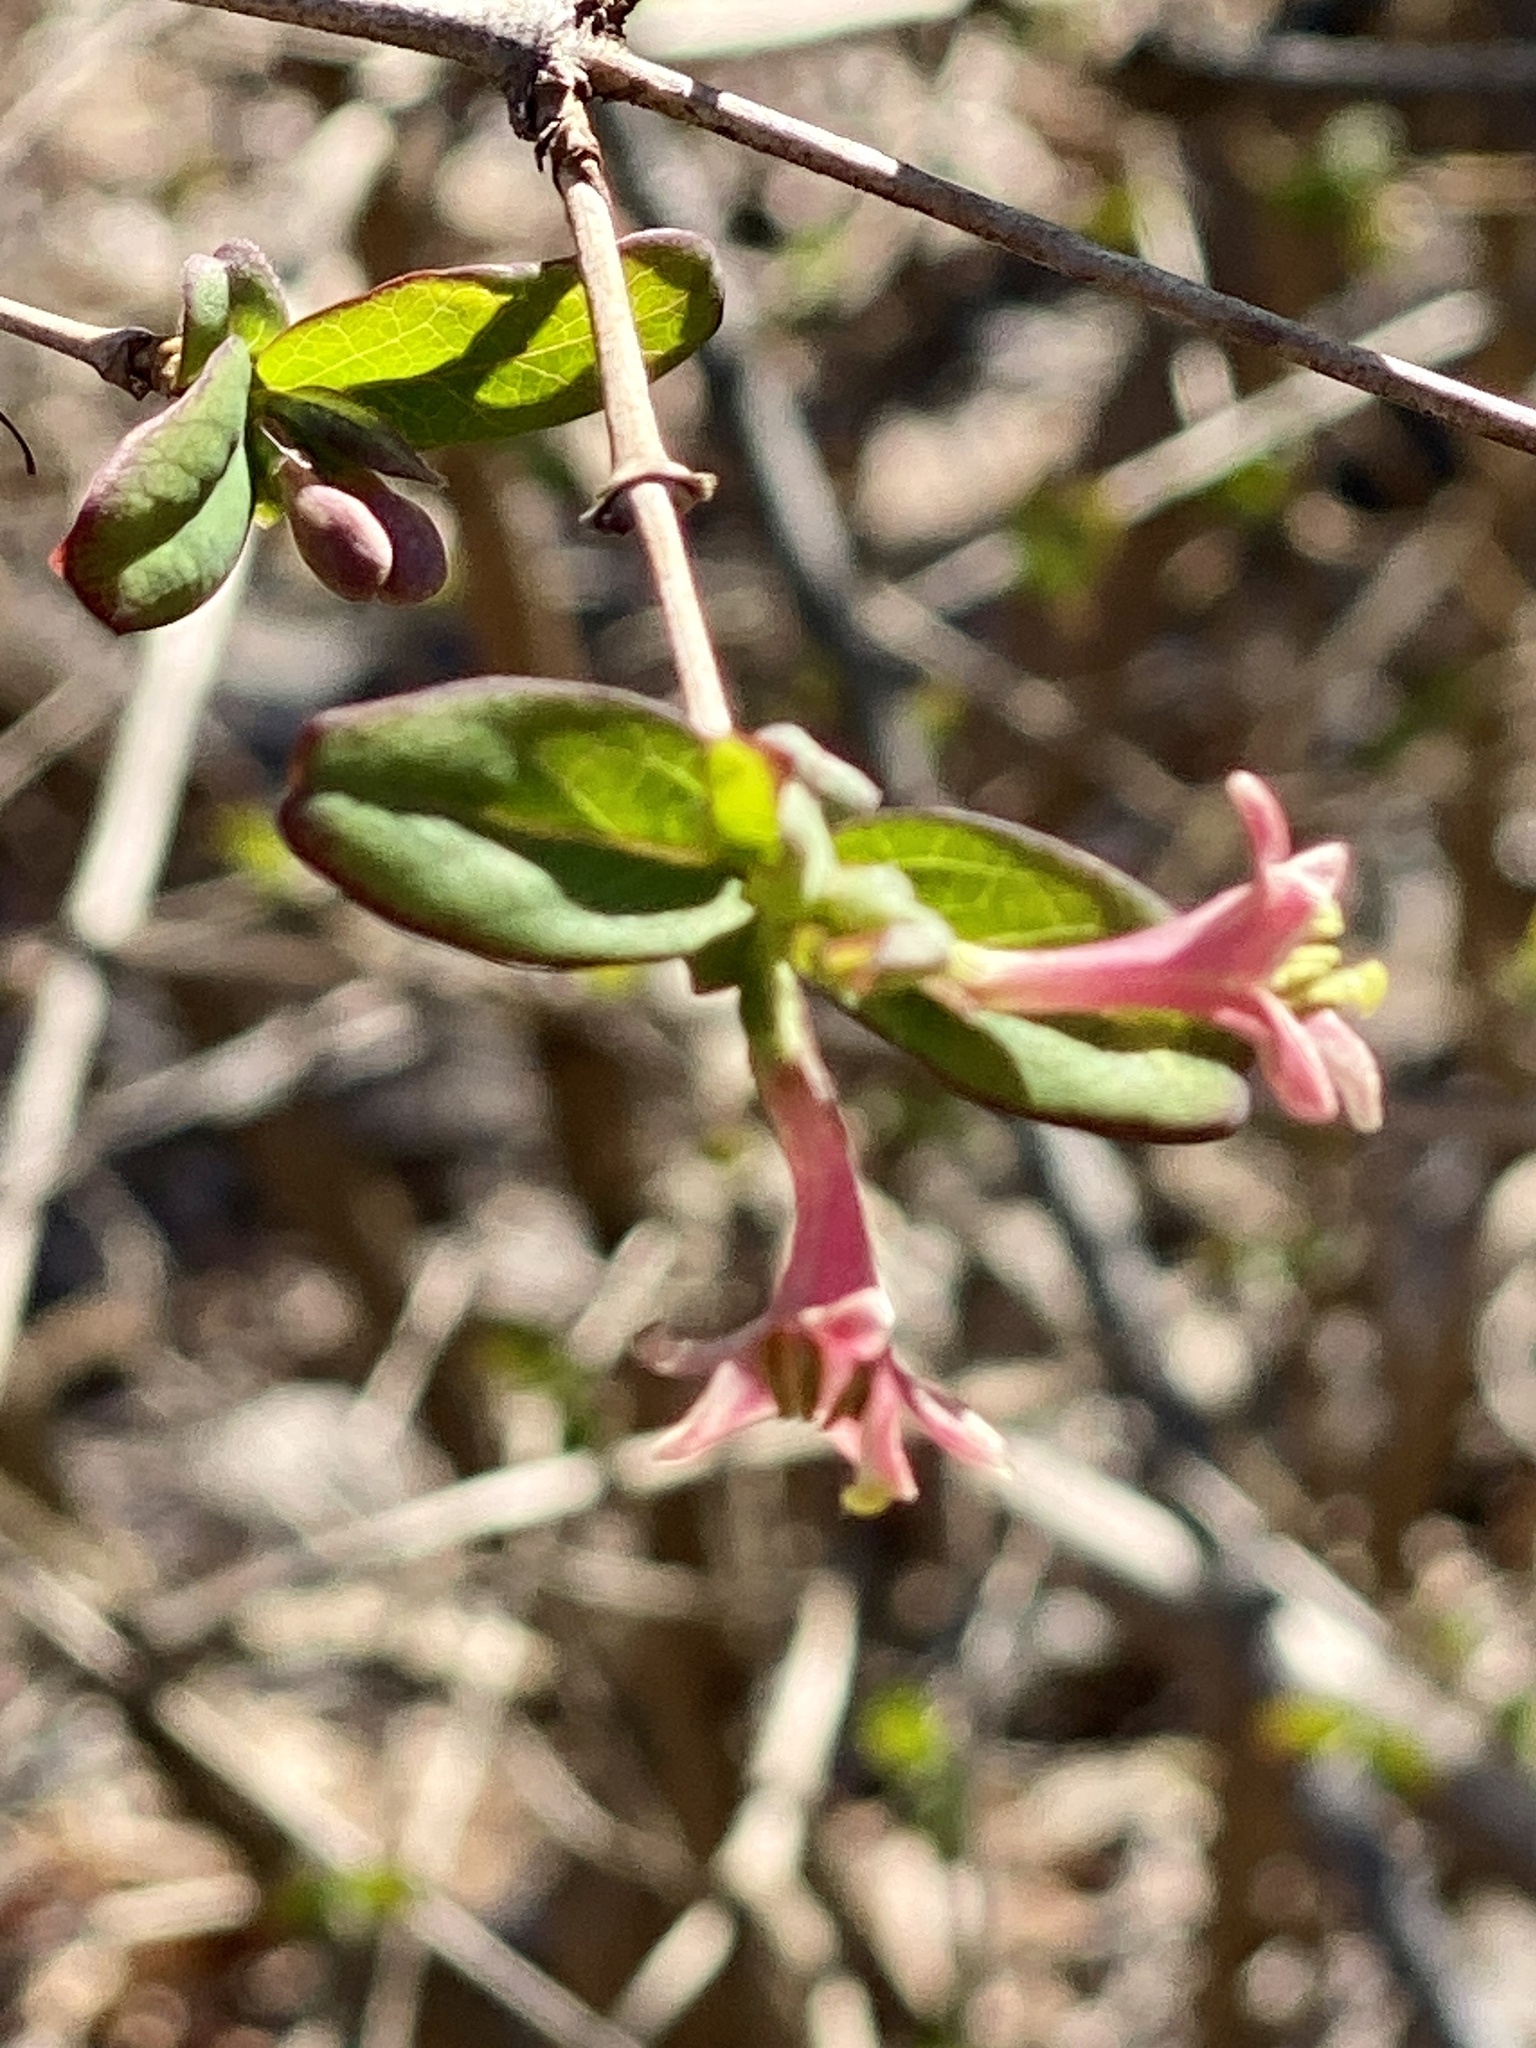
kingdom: Plantae
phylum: Tracheophyta
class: Magnoliopsida
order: Dipsacales
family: Caprifoliaceae
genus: Lonicera
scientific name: Lonicera gracilipes
